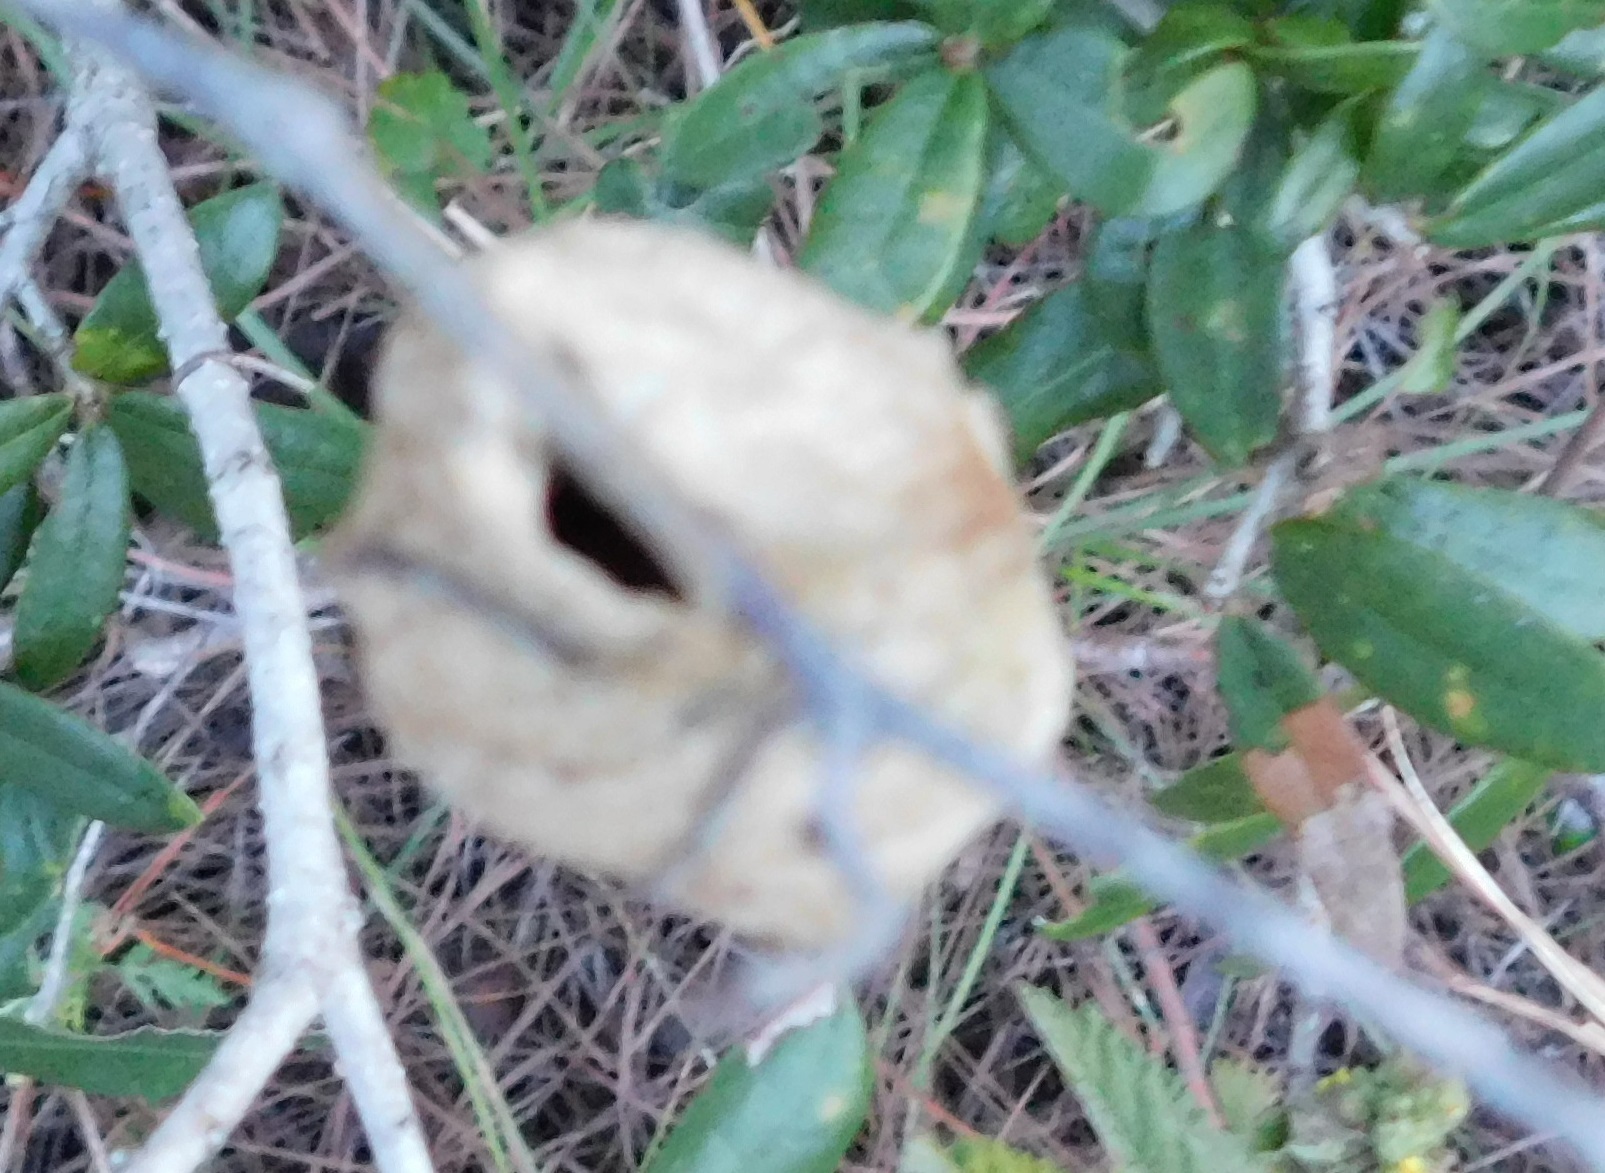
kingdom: Animalia
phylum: Arthropoda
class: Insecta
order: Lepidoptera
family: Saturniidae
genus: Antheraea
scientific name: Antheraea polyphemus
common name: Polyphemus moth
